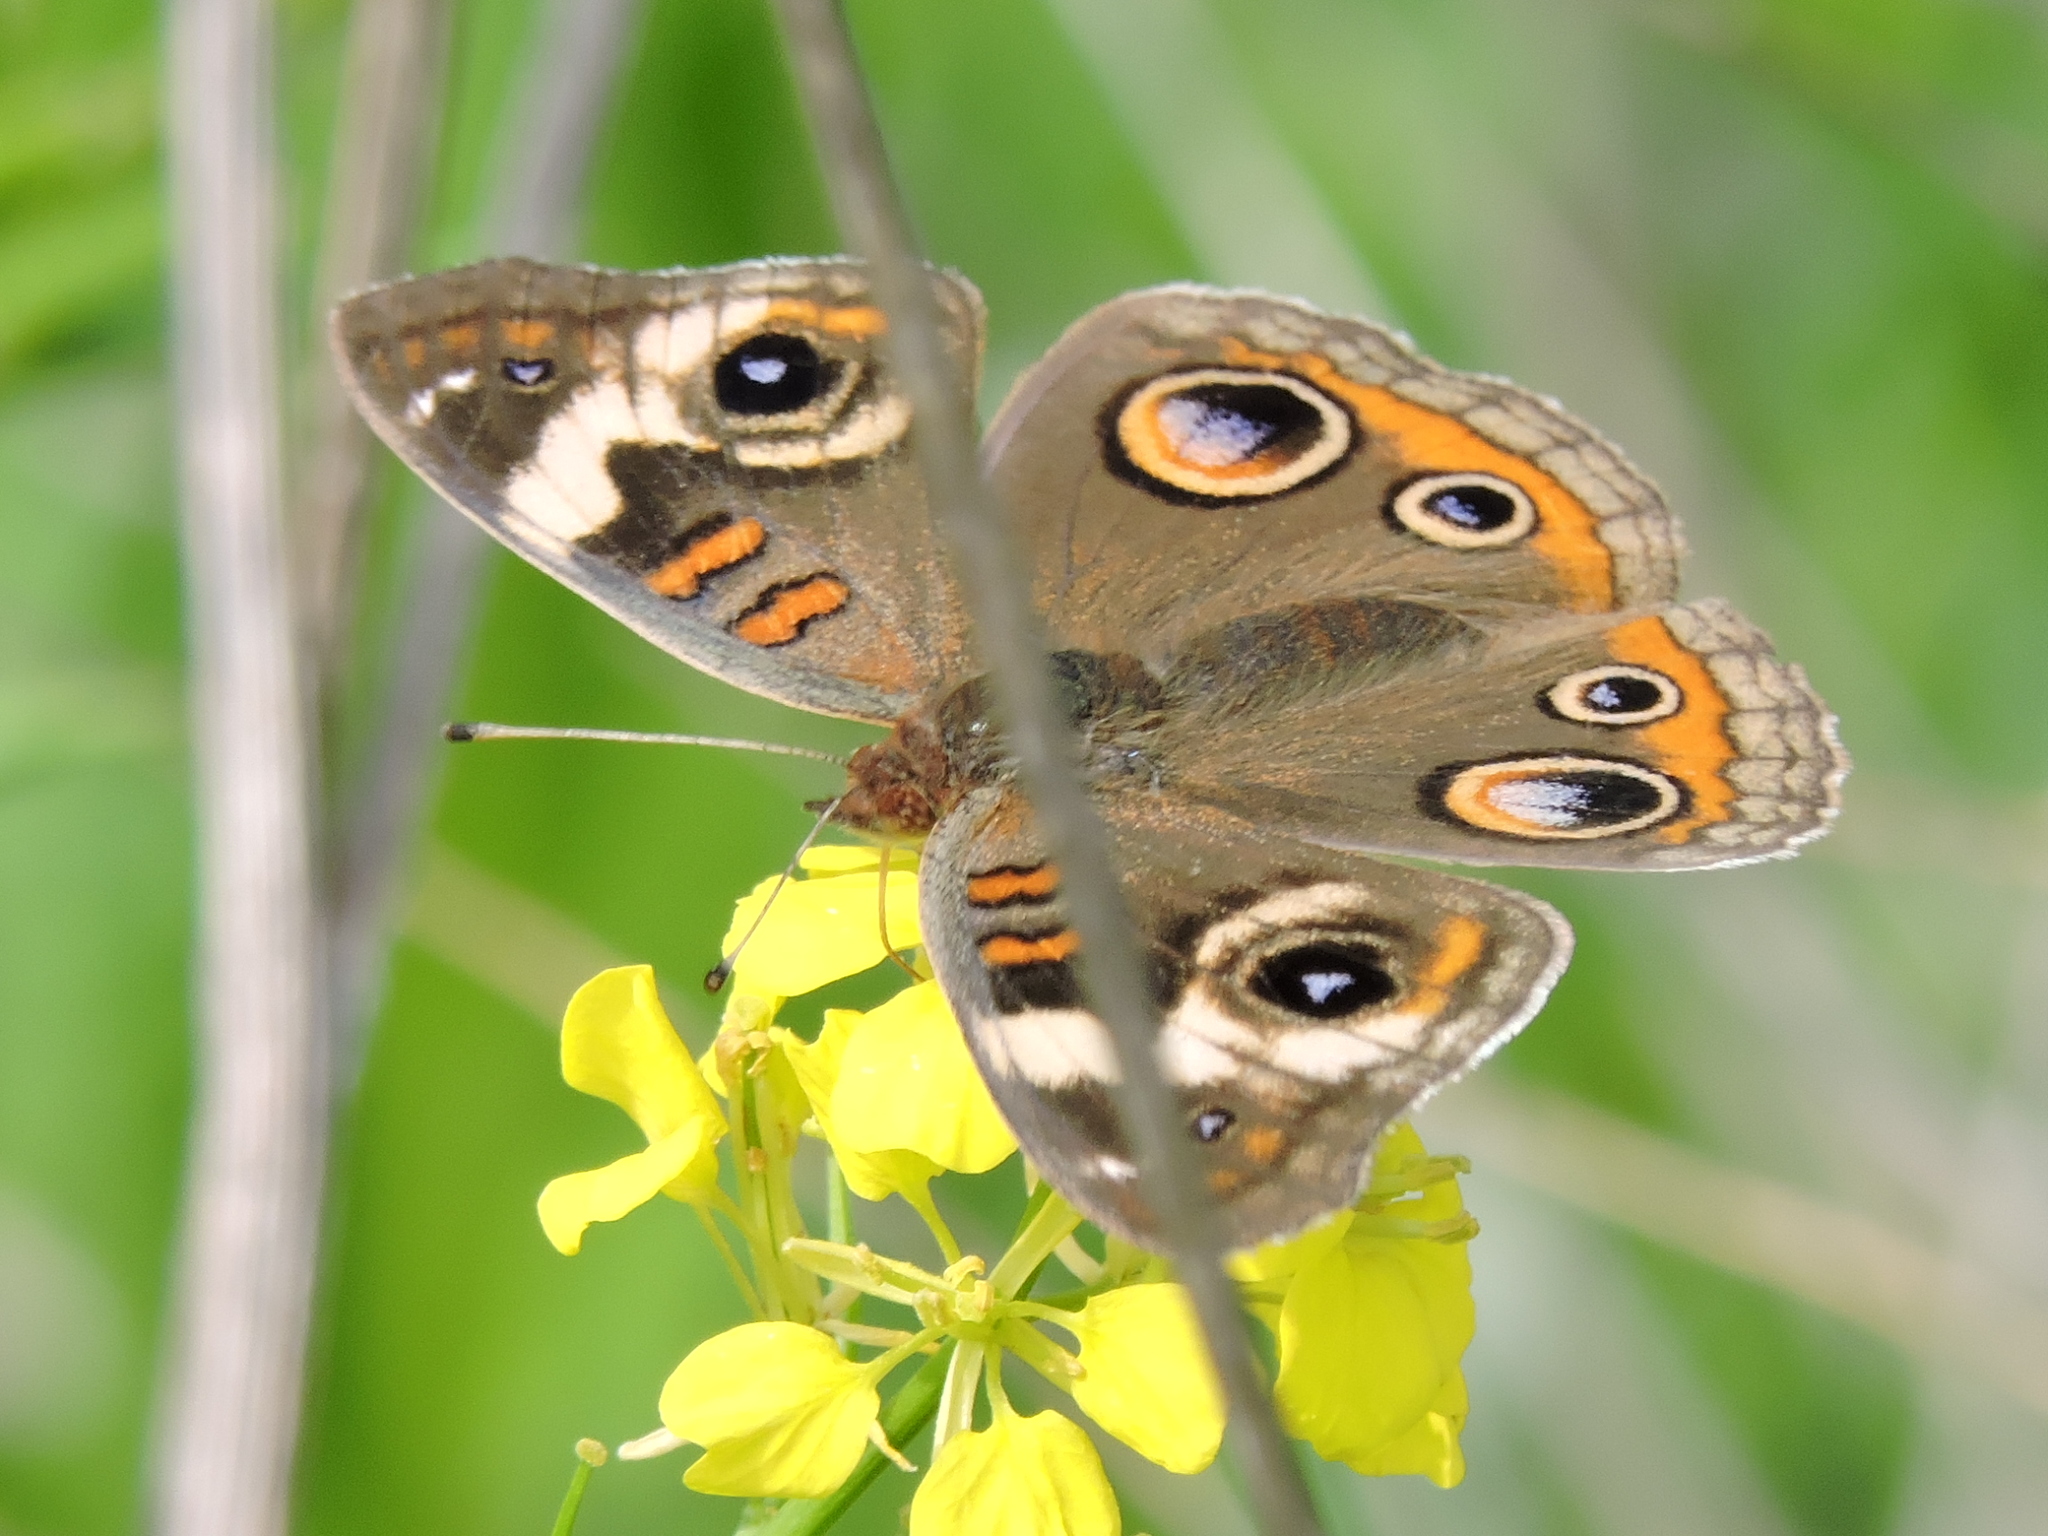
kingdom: Animalia
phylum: Arthropoda
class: Insecta
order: Lepidoptera
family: Nymphalidae
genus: Junonia
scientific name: Junonia coenia
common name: Common buckeye
